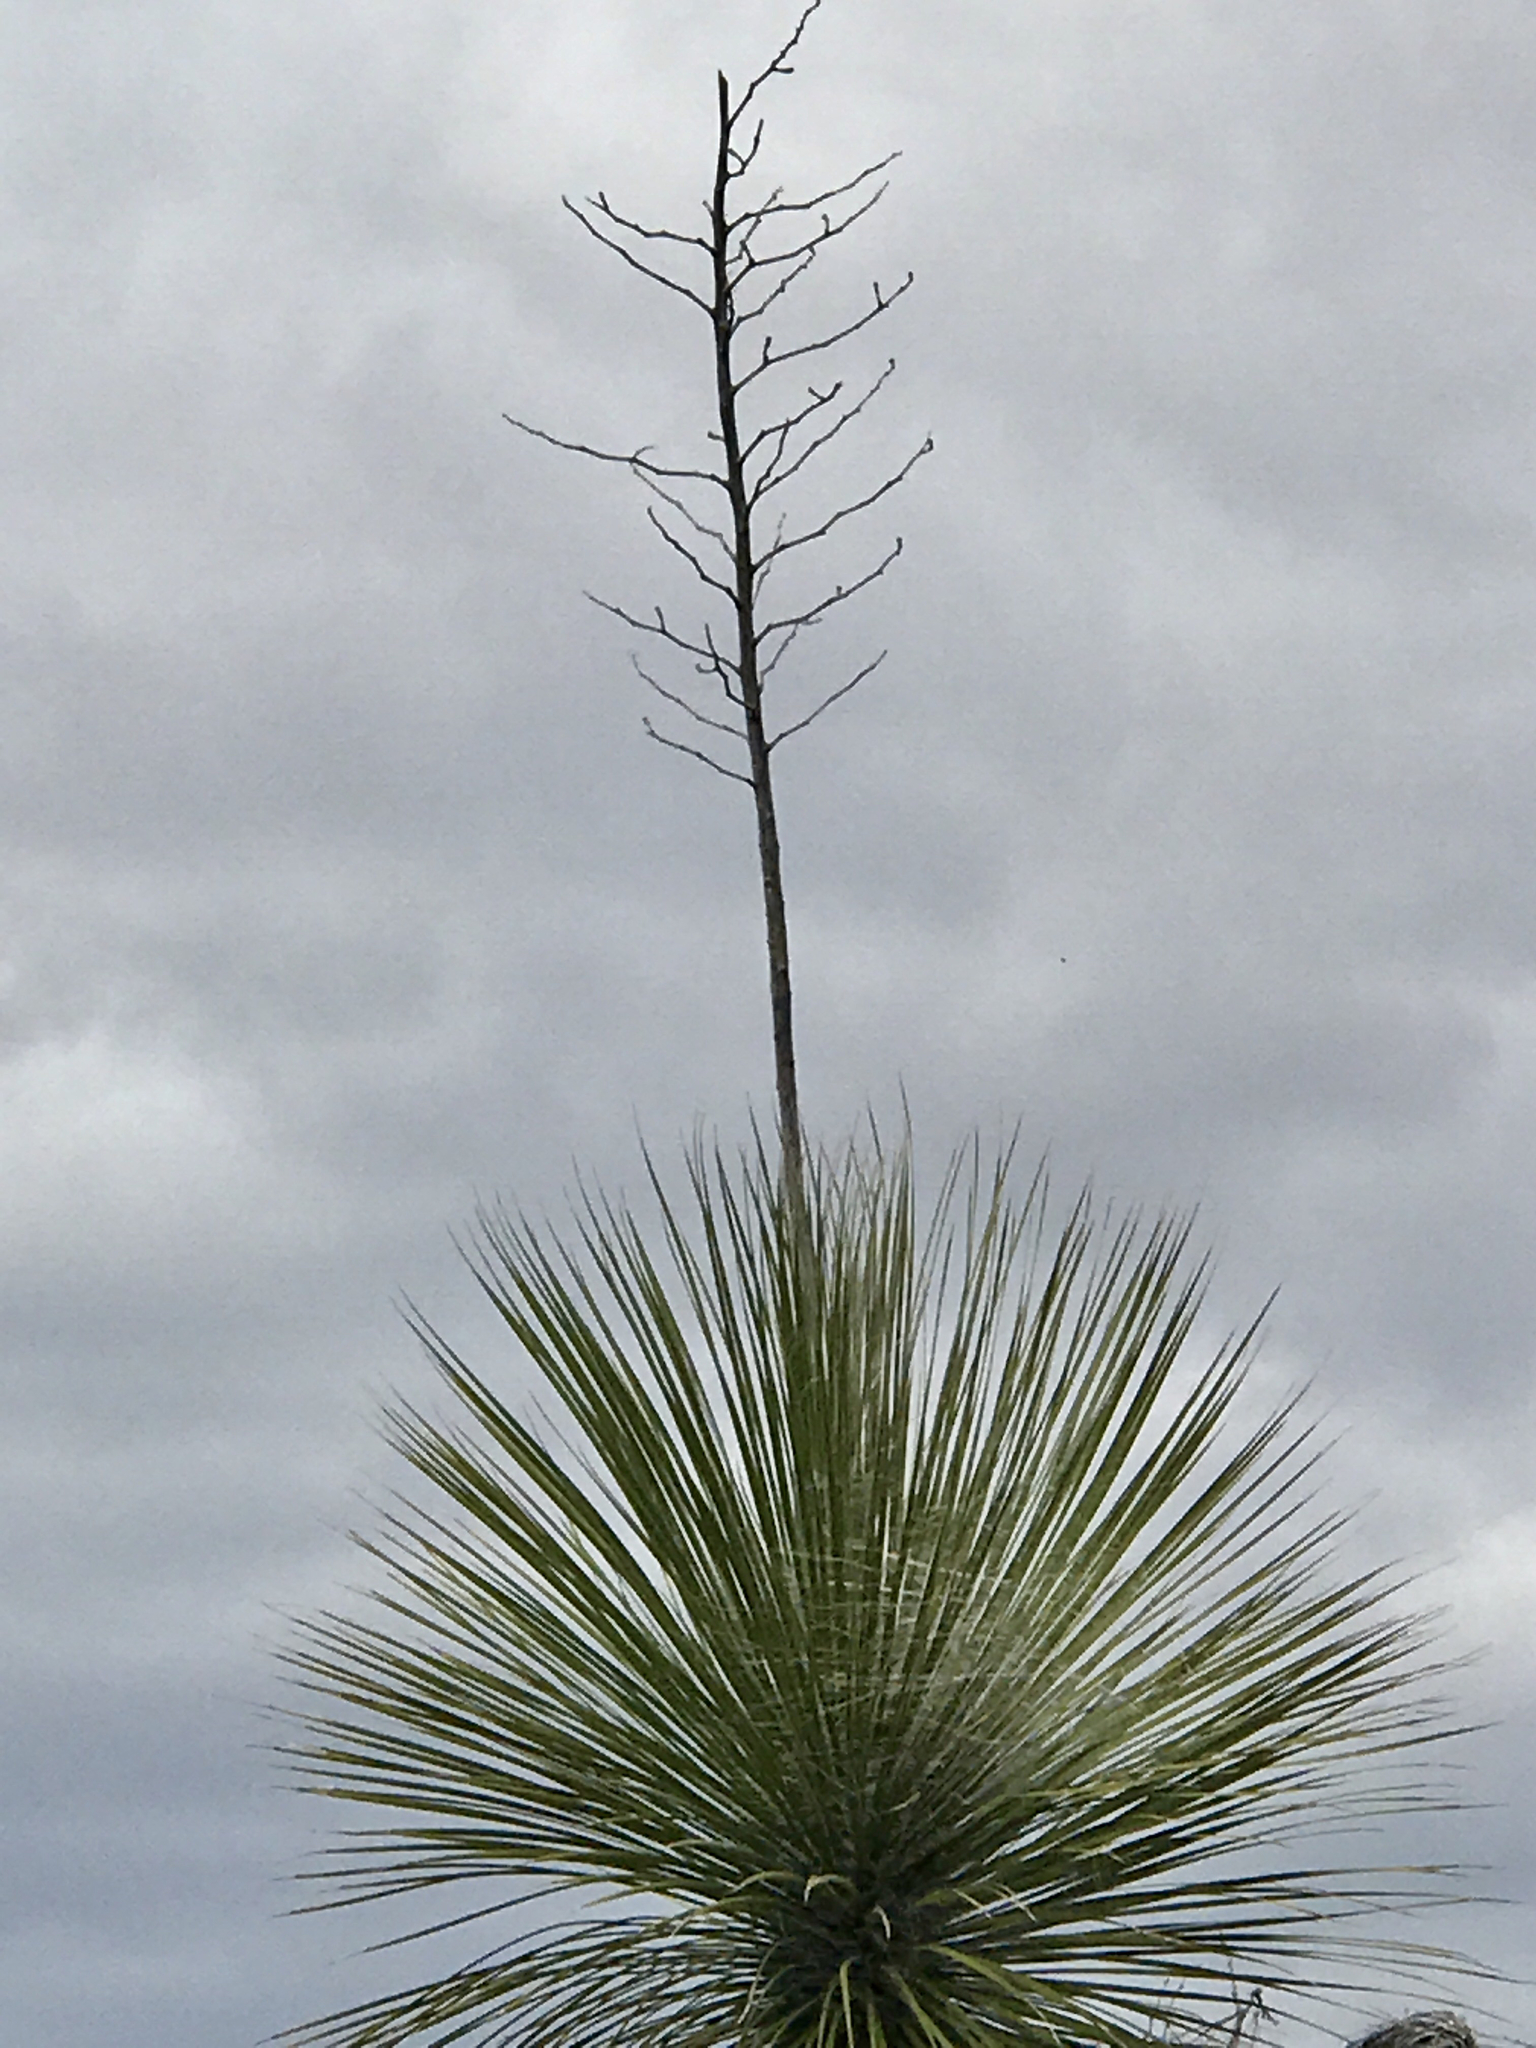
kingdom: Plantae
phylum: Tracheophyta
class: Liliopsida
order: Asparagales
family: Asparagaceae
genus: Yucca
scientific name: Yucca elata
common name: Palmella
